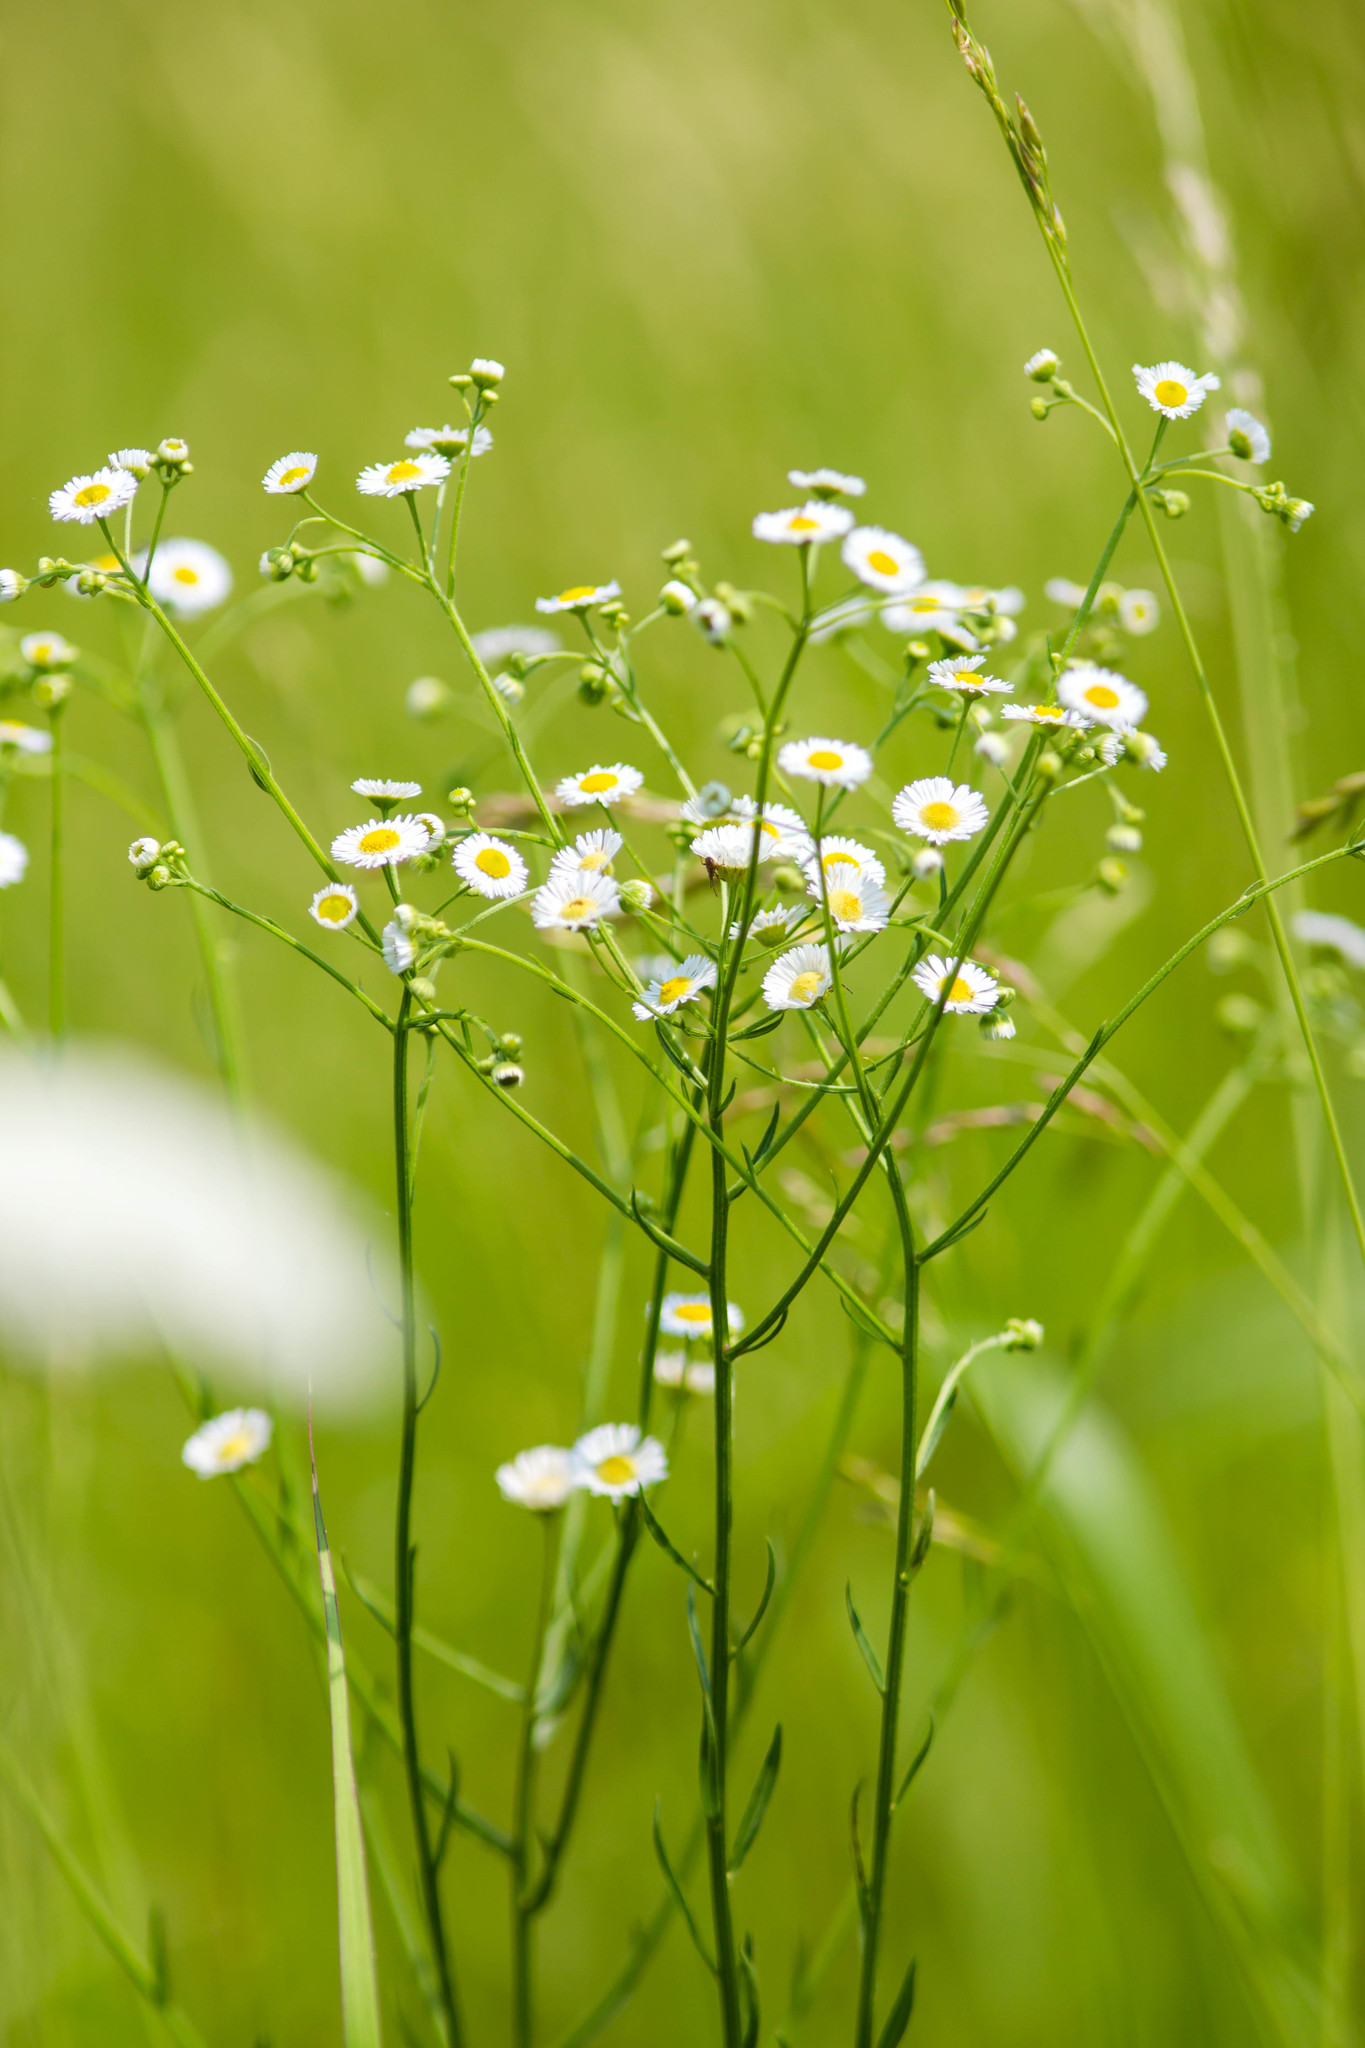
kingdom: Plantae
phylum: Tracheophyta
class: Magnoliopsida
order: Asterales
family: Asteraceae
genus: Erigeron
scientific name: Erigeron strigosus
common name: Common eastern fleabane
